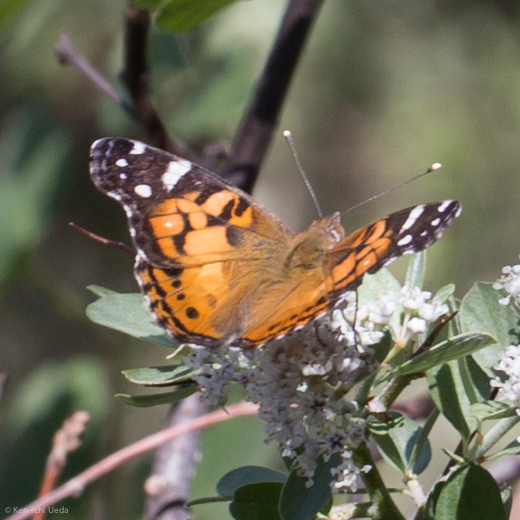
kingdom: Animalia
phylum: Arthropoda
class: Insecta
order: Lepidoptera
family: Nymphalidae
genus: Vanessa
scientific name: Vanessa virginiensis
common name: American lady
